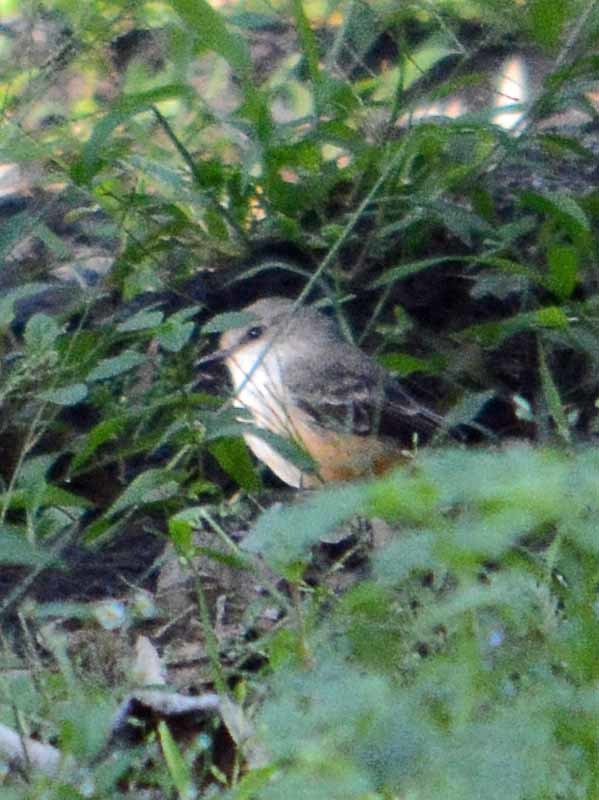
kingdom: Animalia
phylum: Chordata
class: Aves
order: Passeriformes
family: Tyrannidae
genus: Pyrocephalus
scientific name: Pyrocephalus rubinus
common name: Vermilion flycatcher
